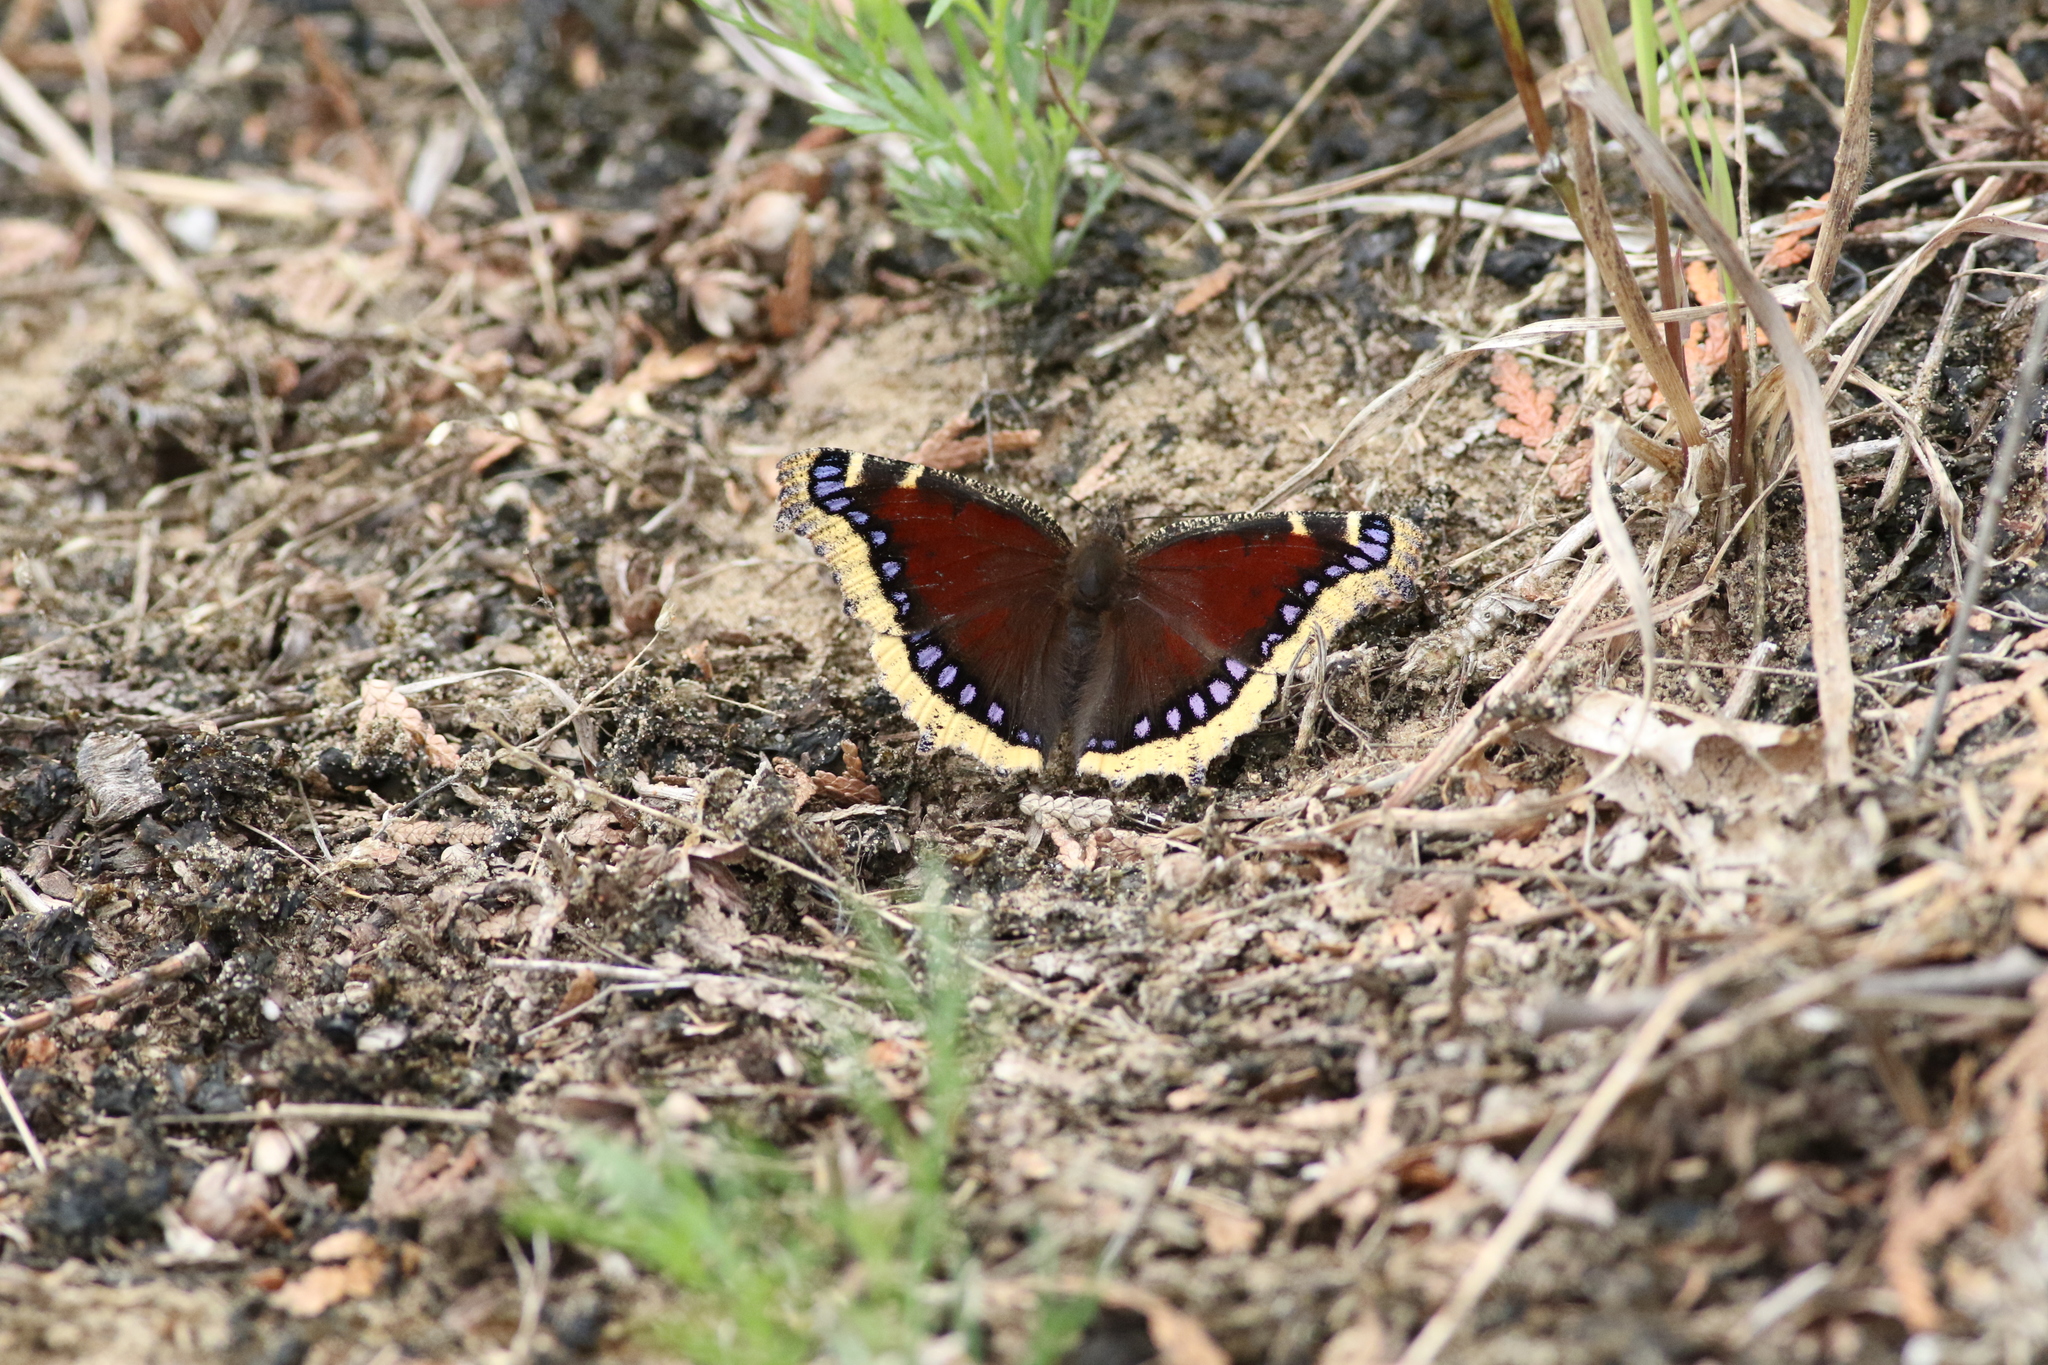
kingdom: Animalia
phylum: Arthropoda
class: Insecta
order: Lepidoptera
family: Nymphalidae
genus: Nymphalis
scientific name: Nymphalis antiopa
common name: Camberwell beauty
